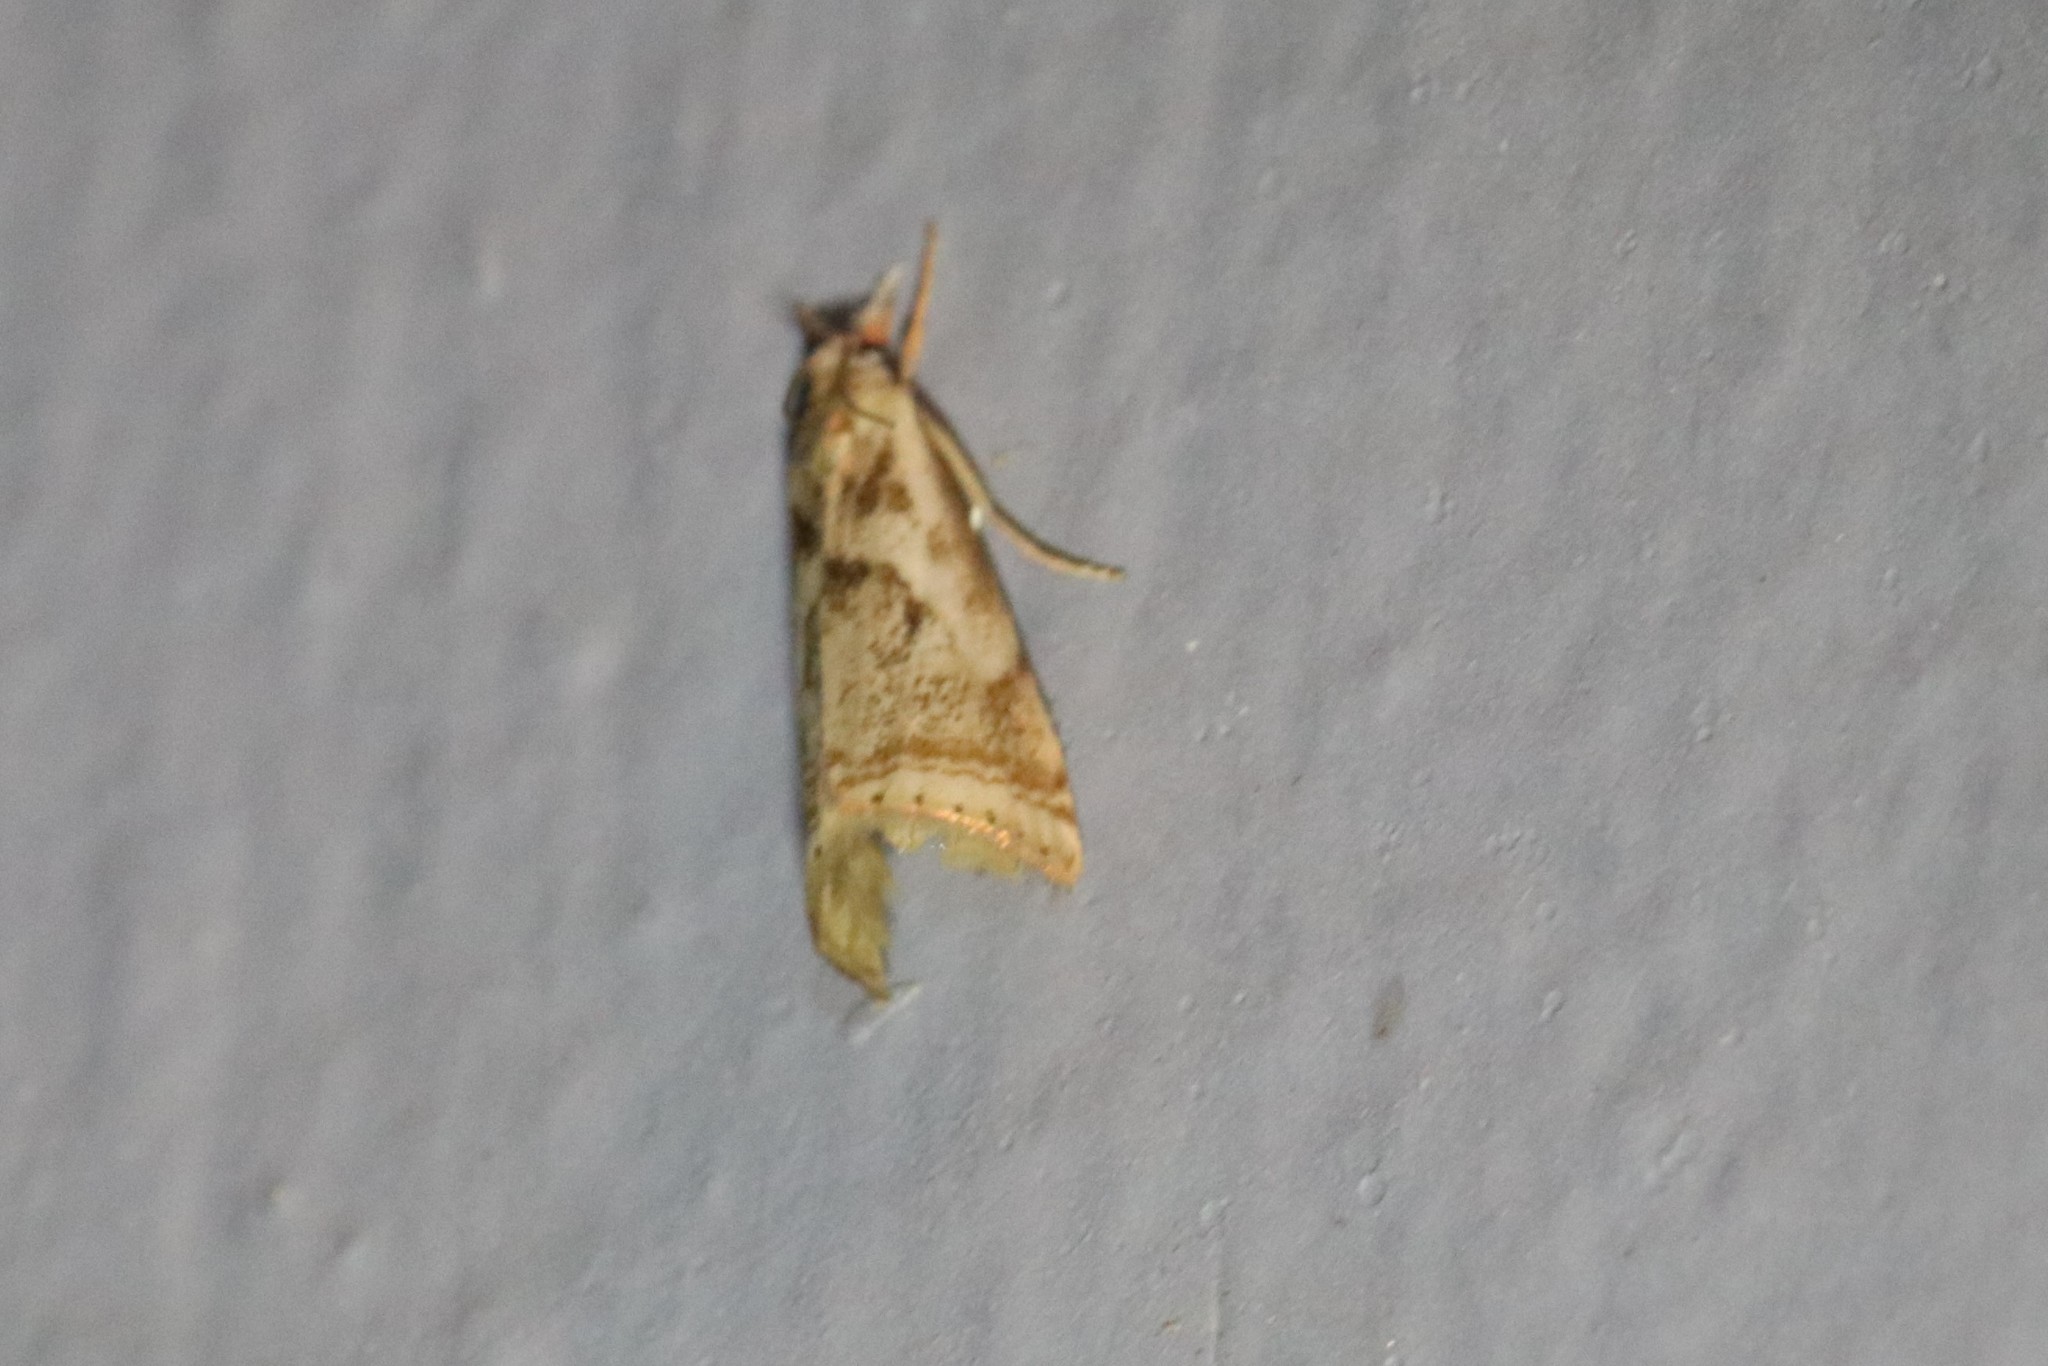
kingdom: Animalia
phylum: Arthropoda
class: Insecta
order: Lepidoptera
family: Crambidae
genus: Microcrambus
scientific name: Microcrambus elegans
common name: Elegant grass-veneer
